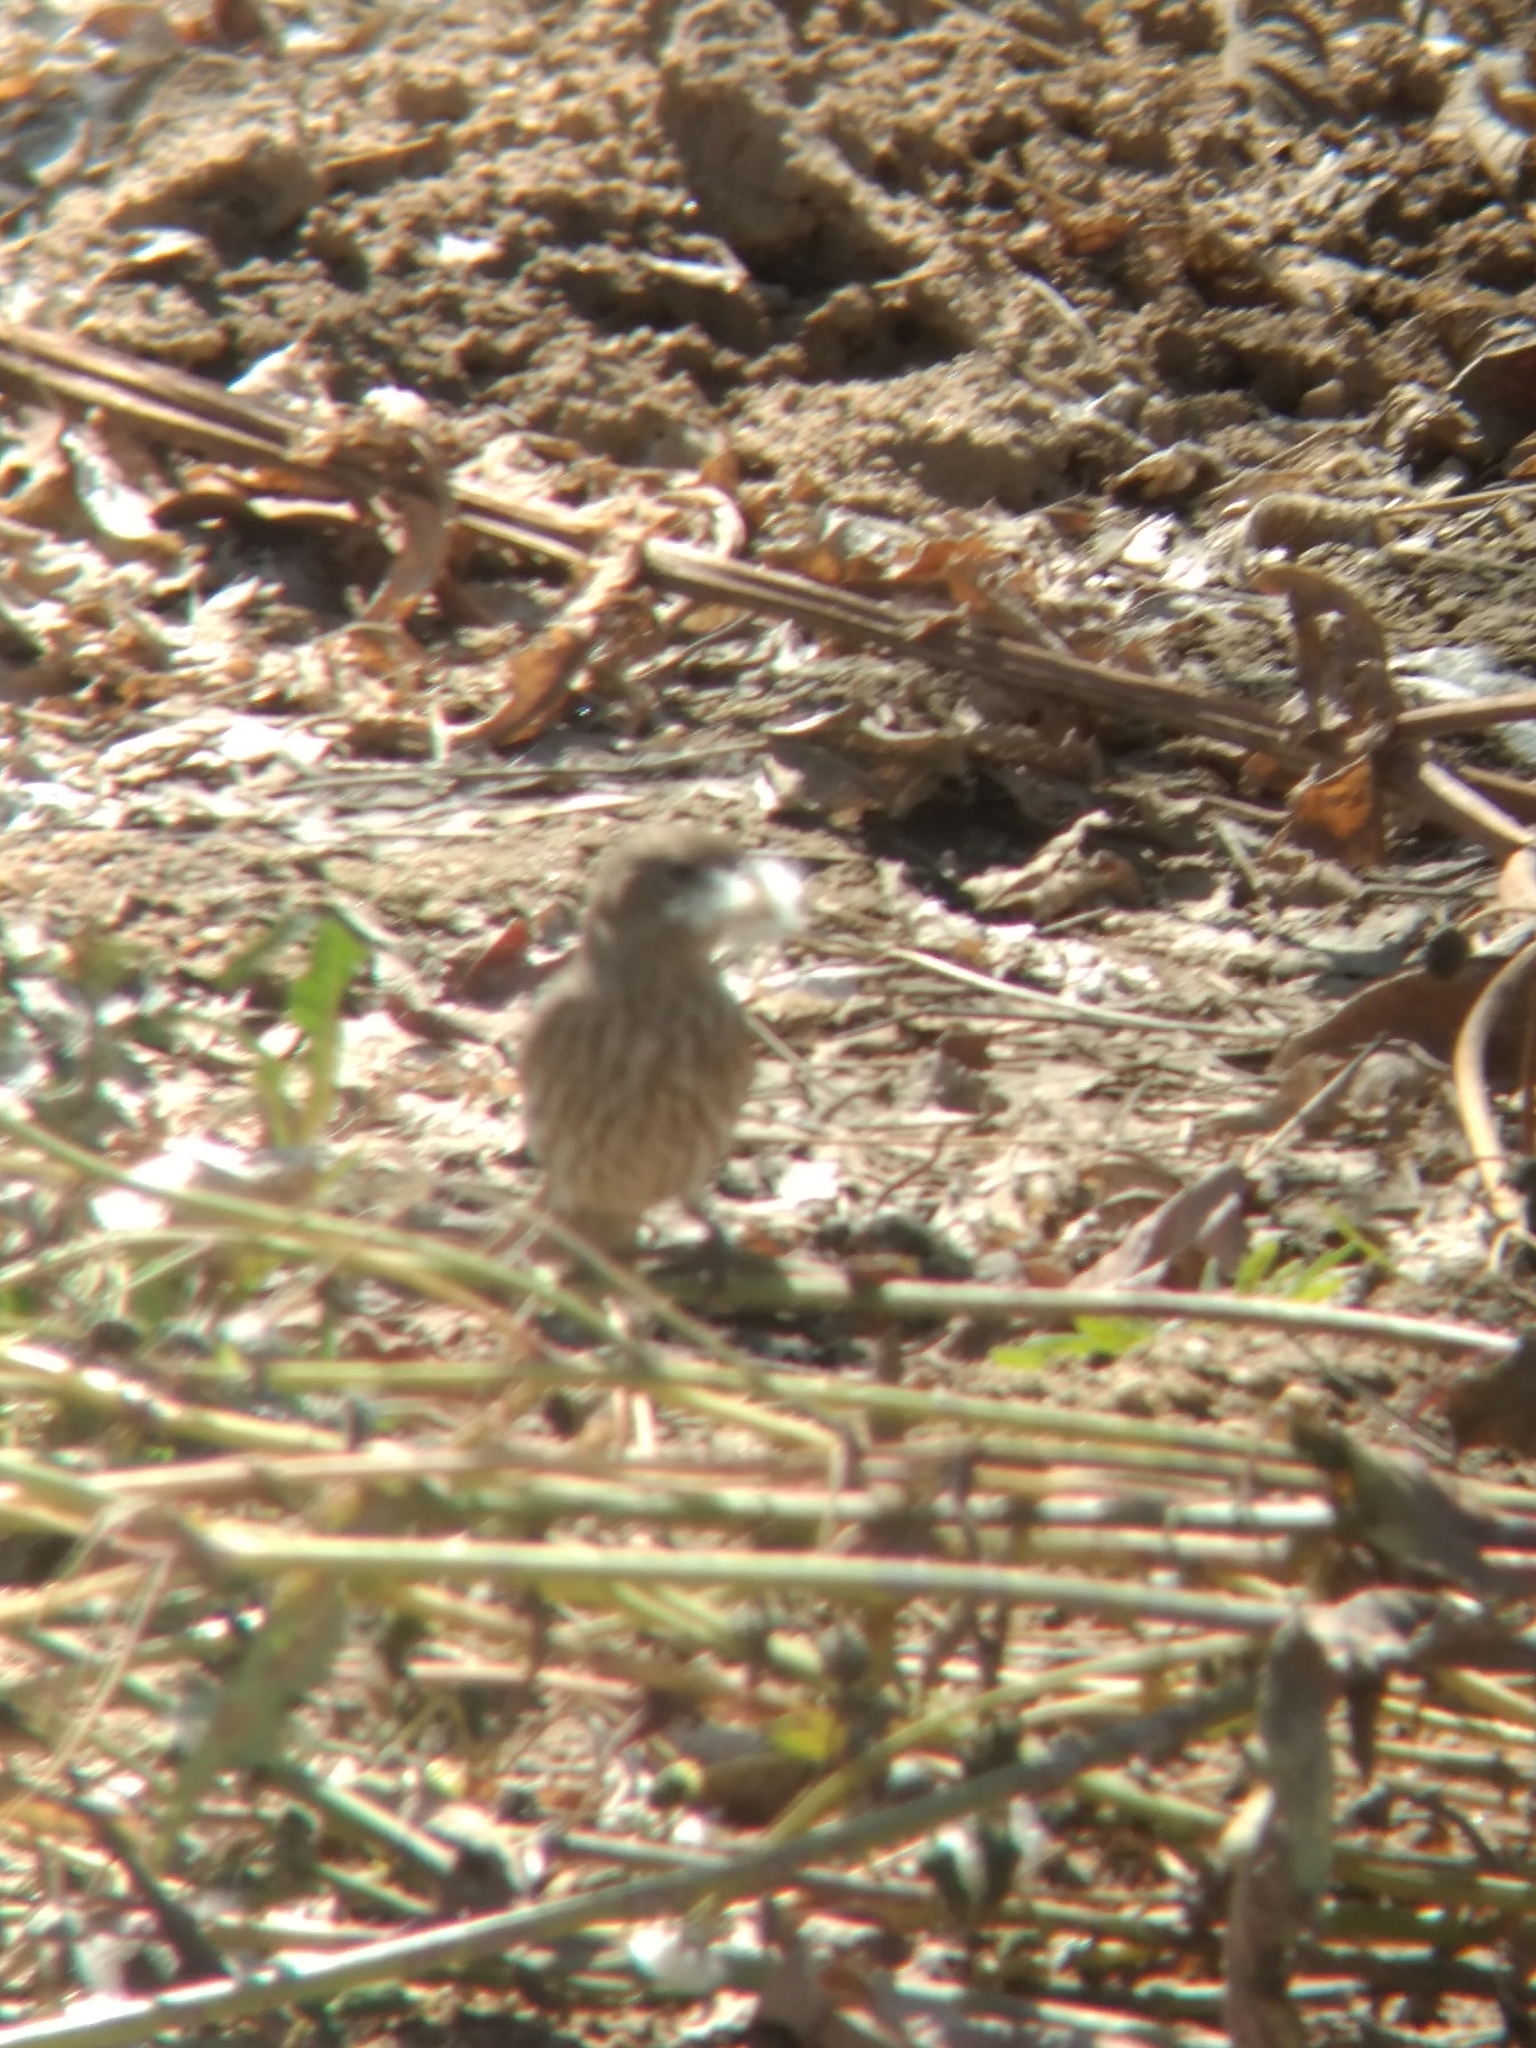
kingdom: Animalia
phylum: Chordata
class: Aves
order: Passeriformes
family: Fringillidae
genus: Haemorhous
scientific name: Haemorhous mexicanus
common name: House finch
